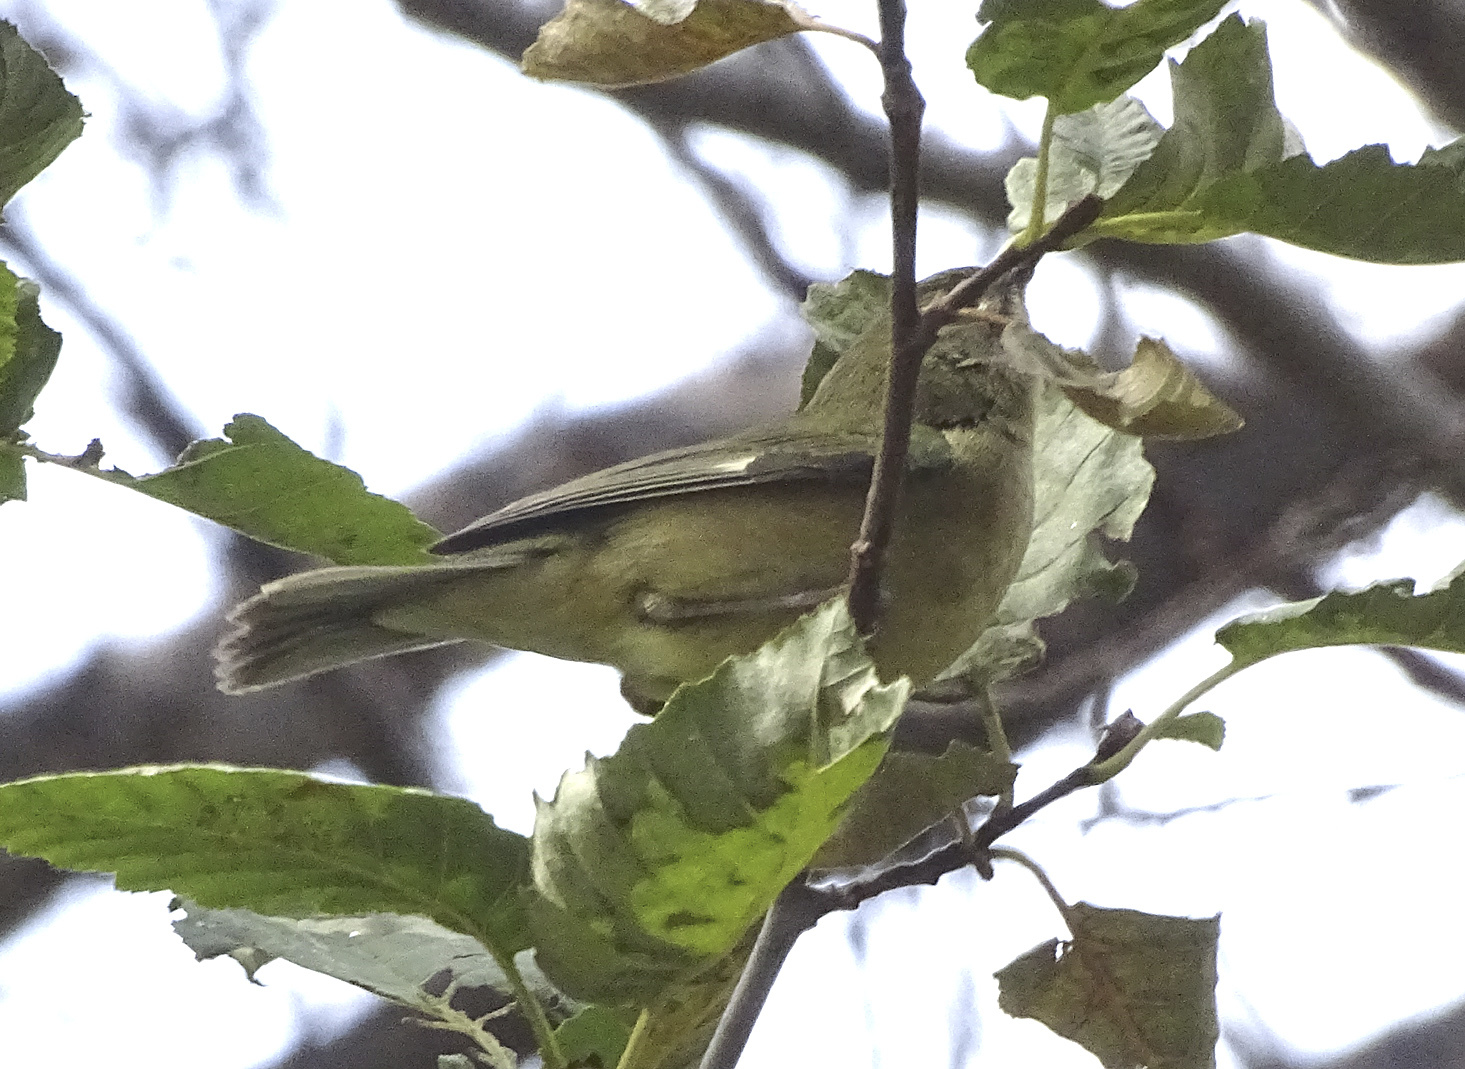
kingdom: Animalia
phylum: Chordata
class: Aves
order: Passeriformes
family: Parulidae
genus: Setophaga
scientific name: Setophaga caerulescens
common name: Black-throated blue warbler
